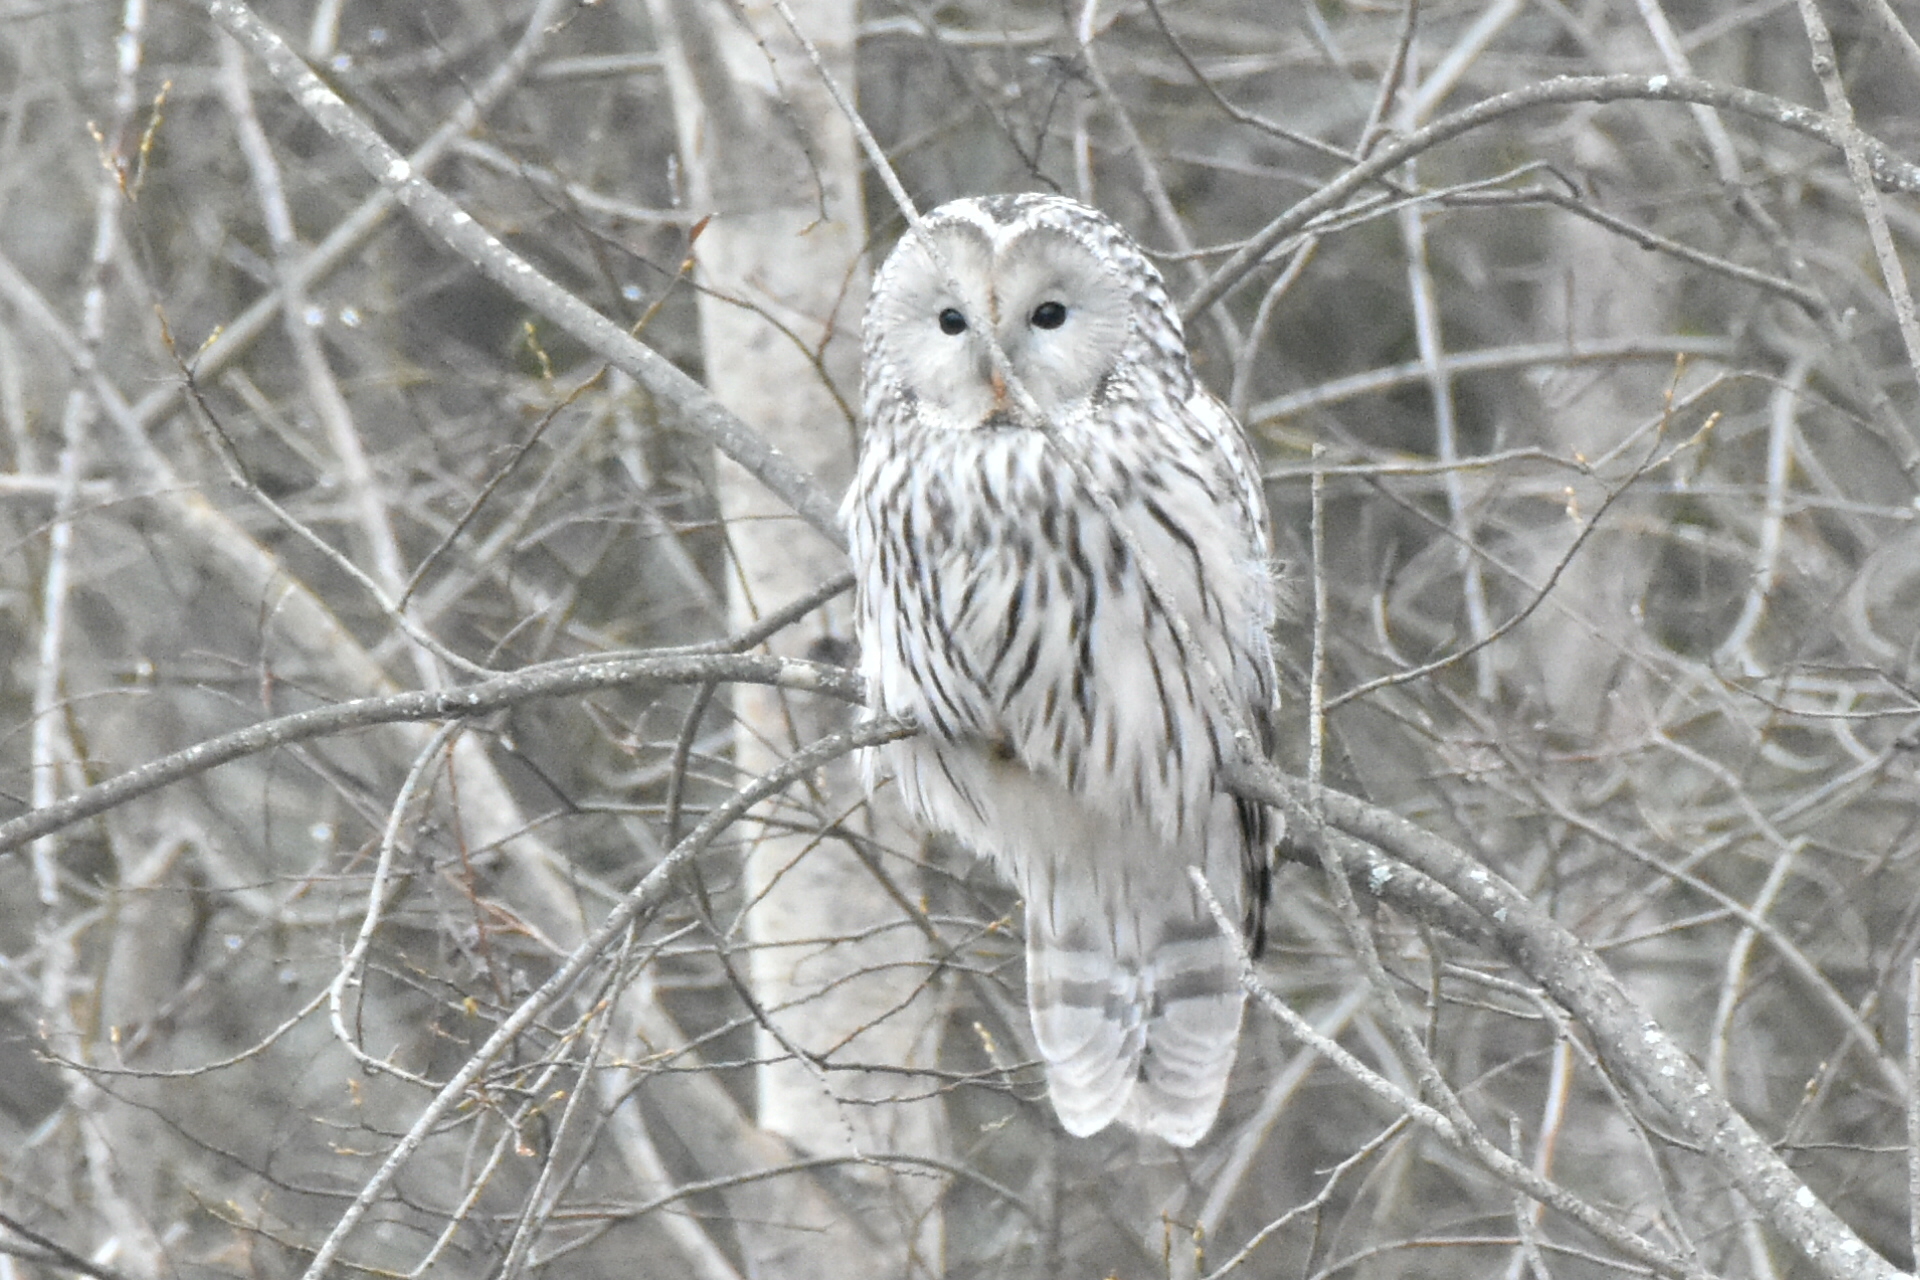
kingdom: Animalia
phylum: Chordata
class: Aves
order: Strigiformes
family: Strigidae
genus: Strix
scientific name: Strix uralensis
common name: Ural owl
